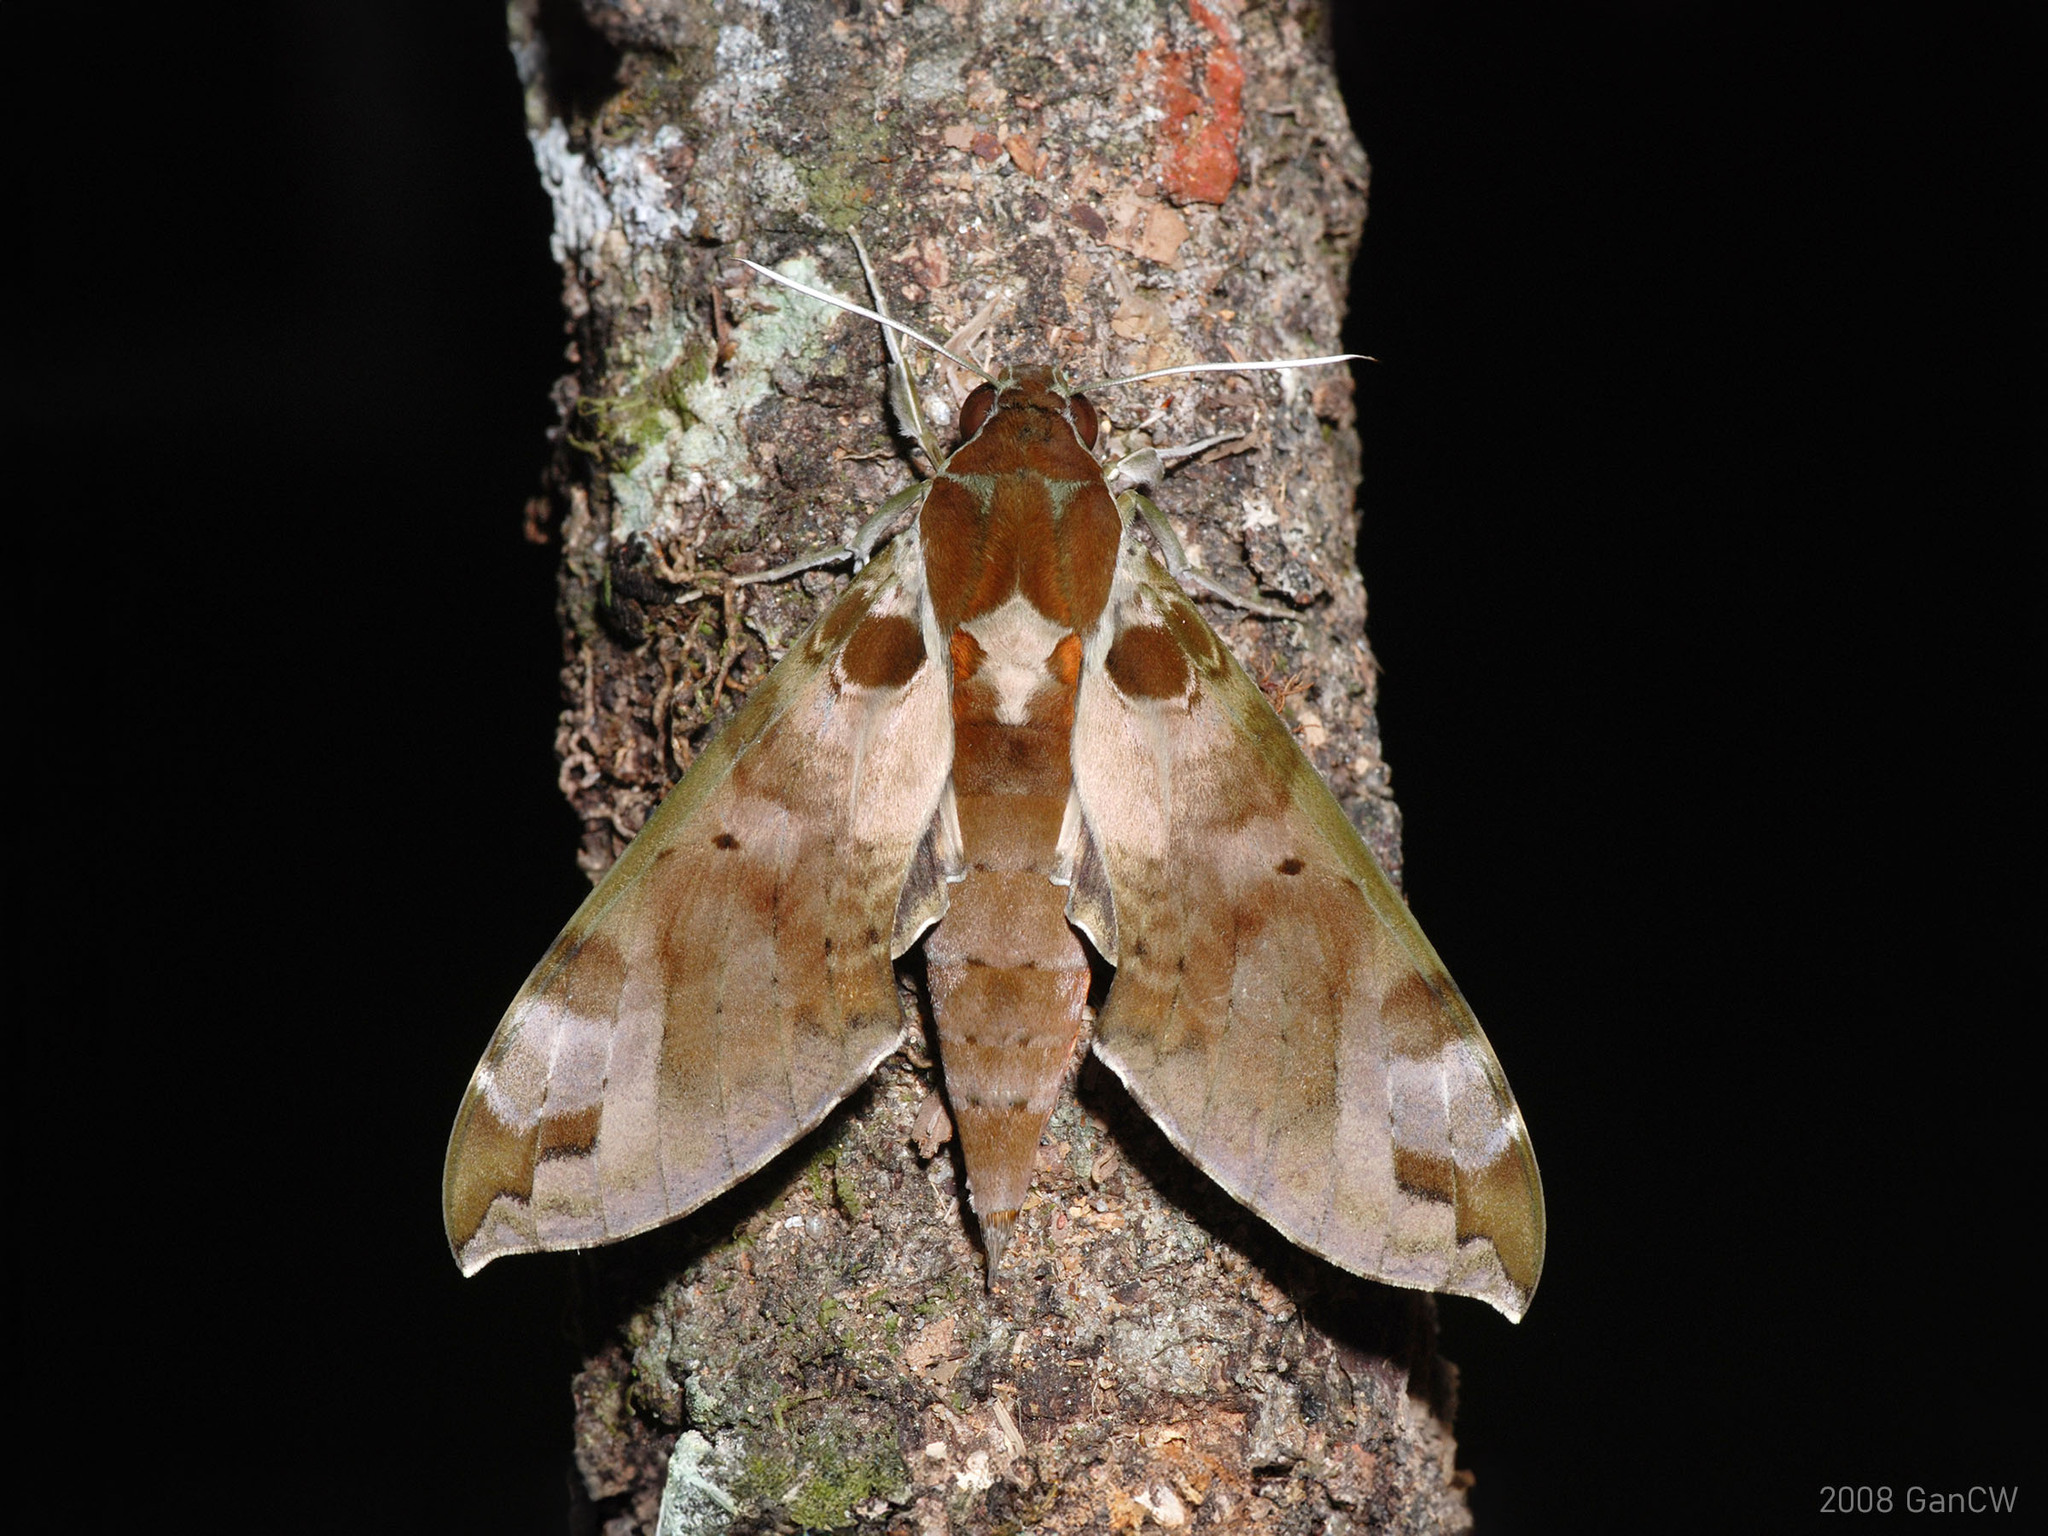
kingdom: Animalia
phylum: Arthropoda
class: Insecta
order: Lepidoptera
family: Sphingidae
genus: Cechenena
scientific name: Cechenena helops
